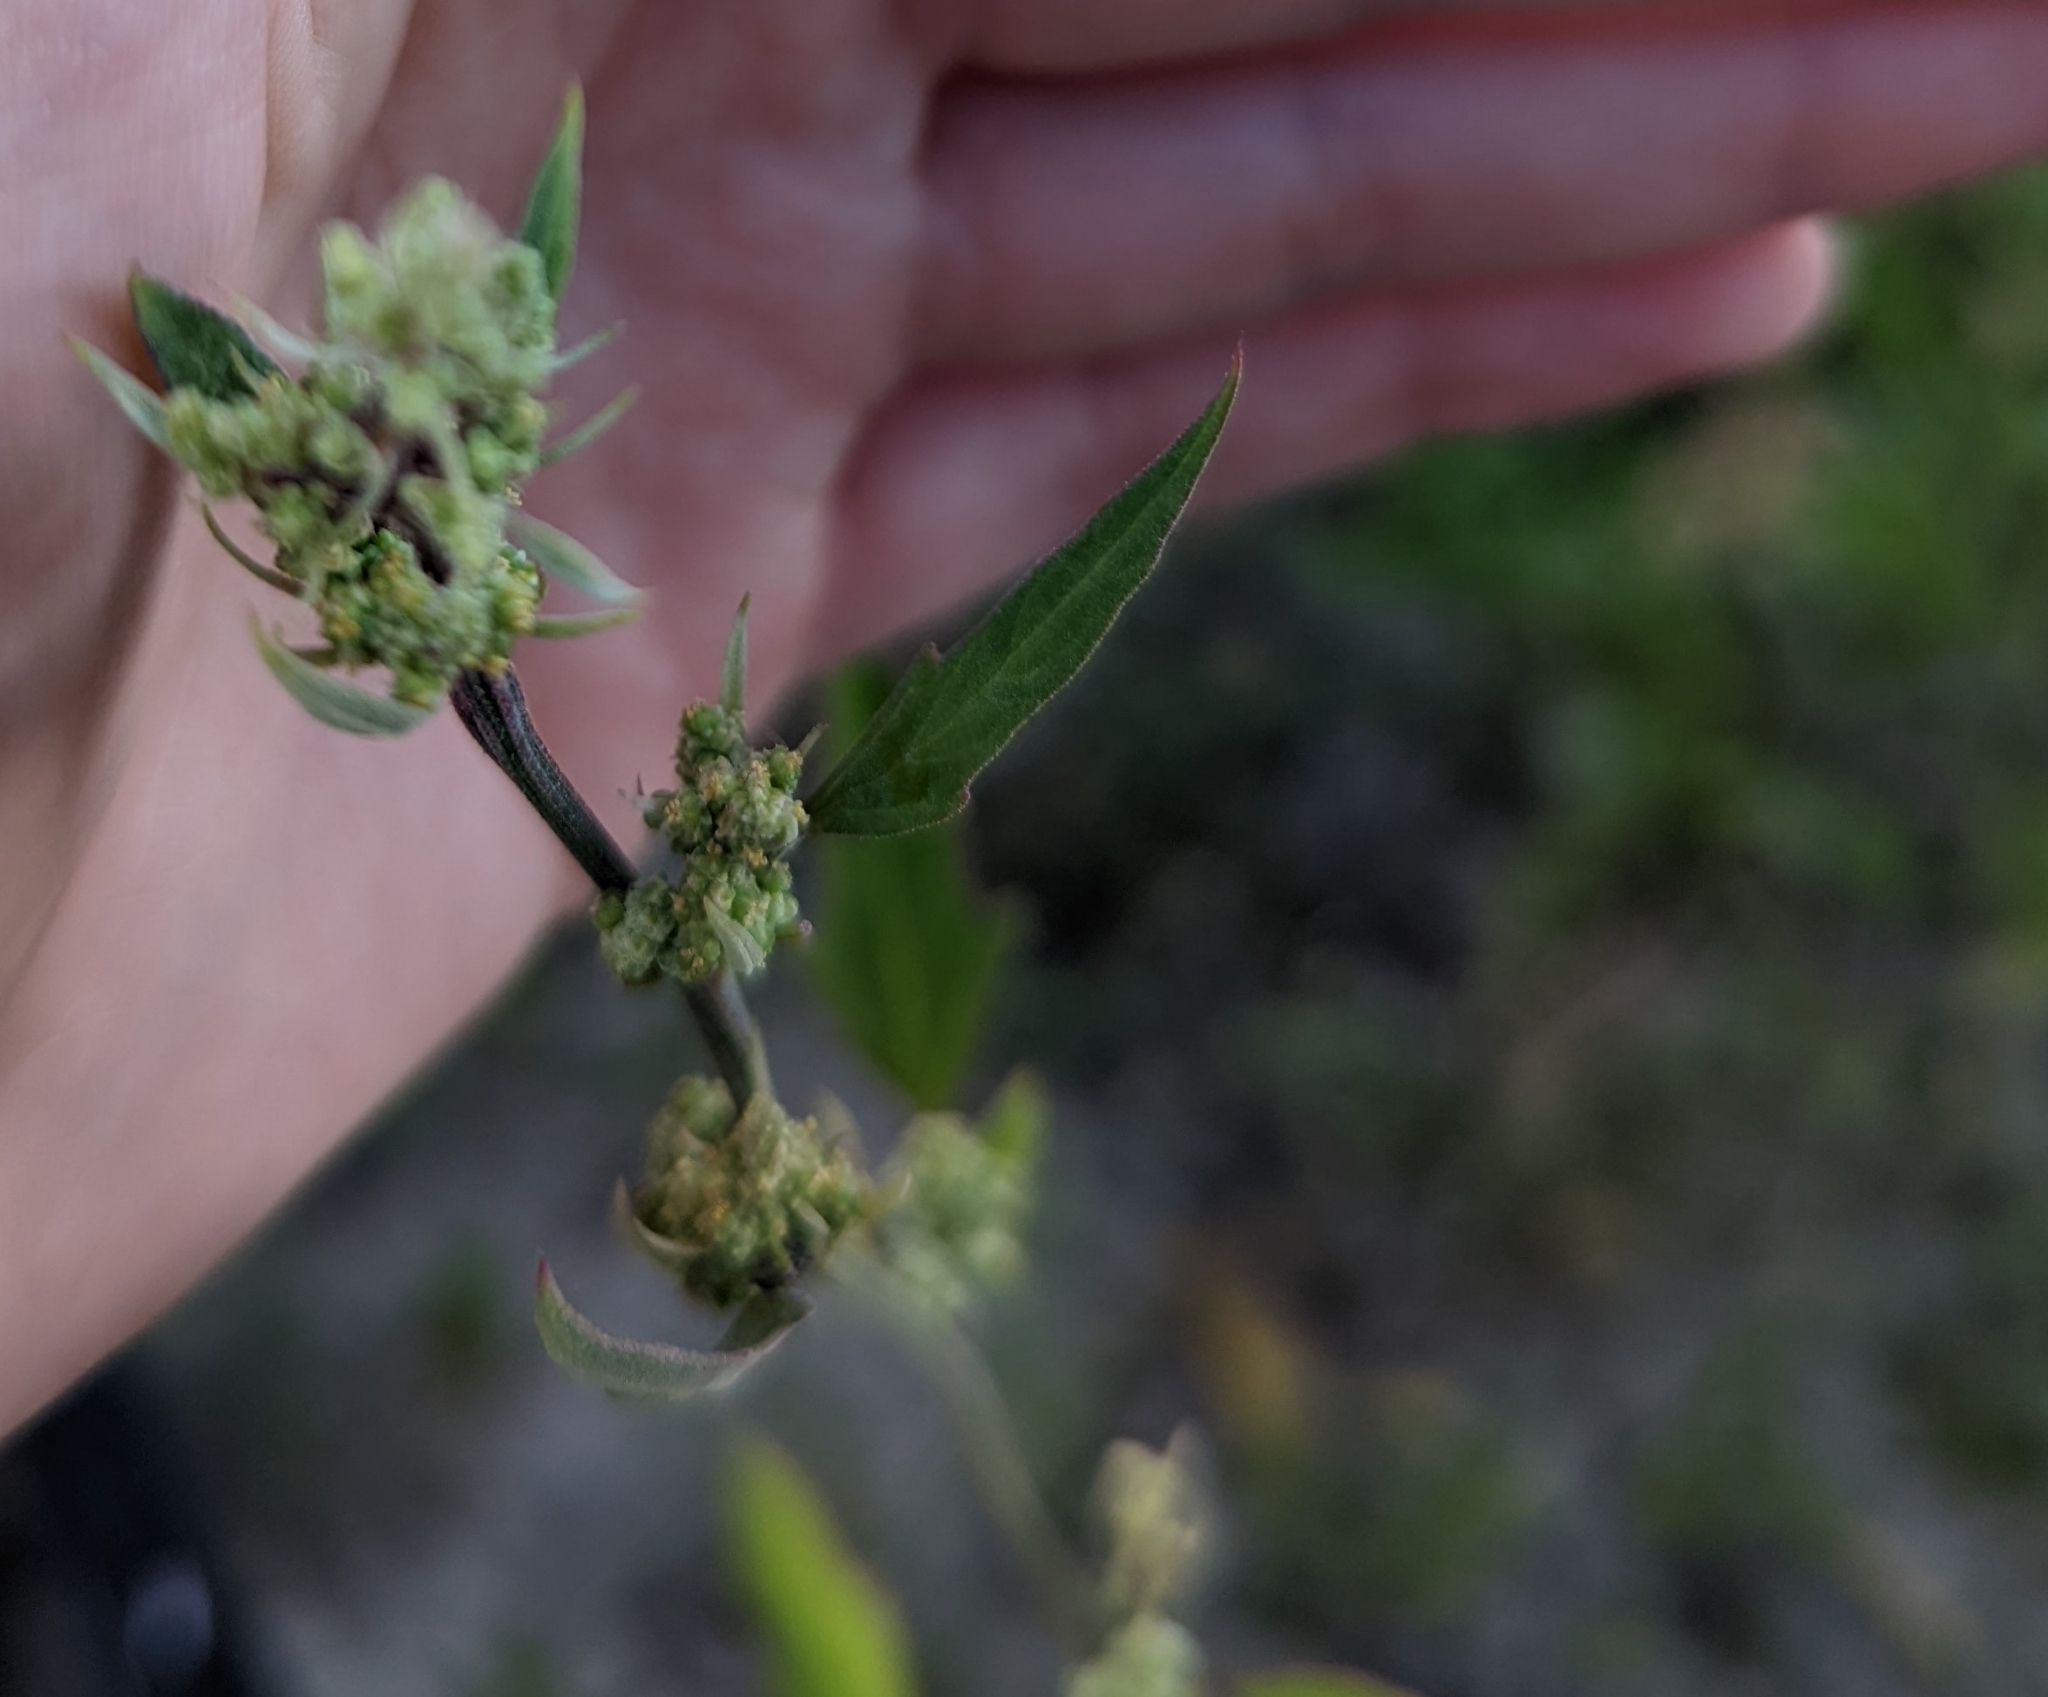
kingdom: Plantae
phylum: Tracheophyta
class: Magnoliopsida
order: Caryophyllales
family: Amaranthaceae
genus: Chenopodium
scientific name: Chenopodium album
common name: Fat-hen
